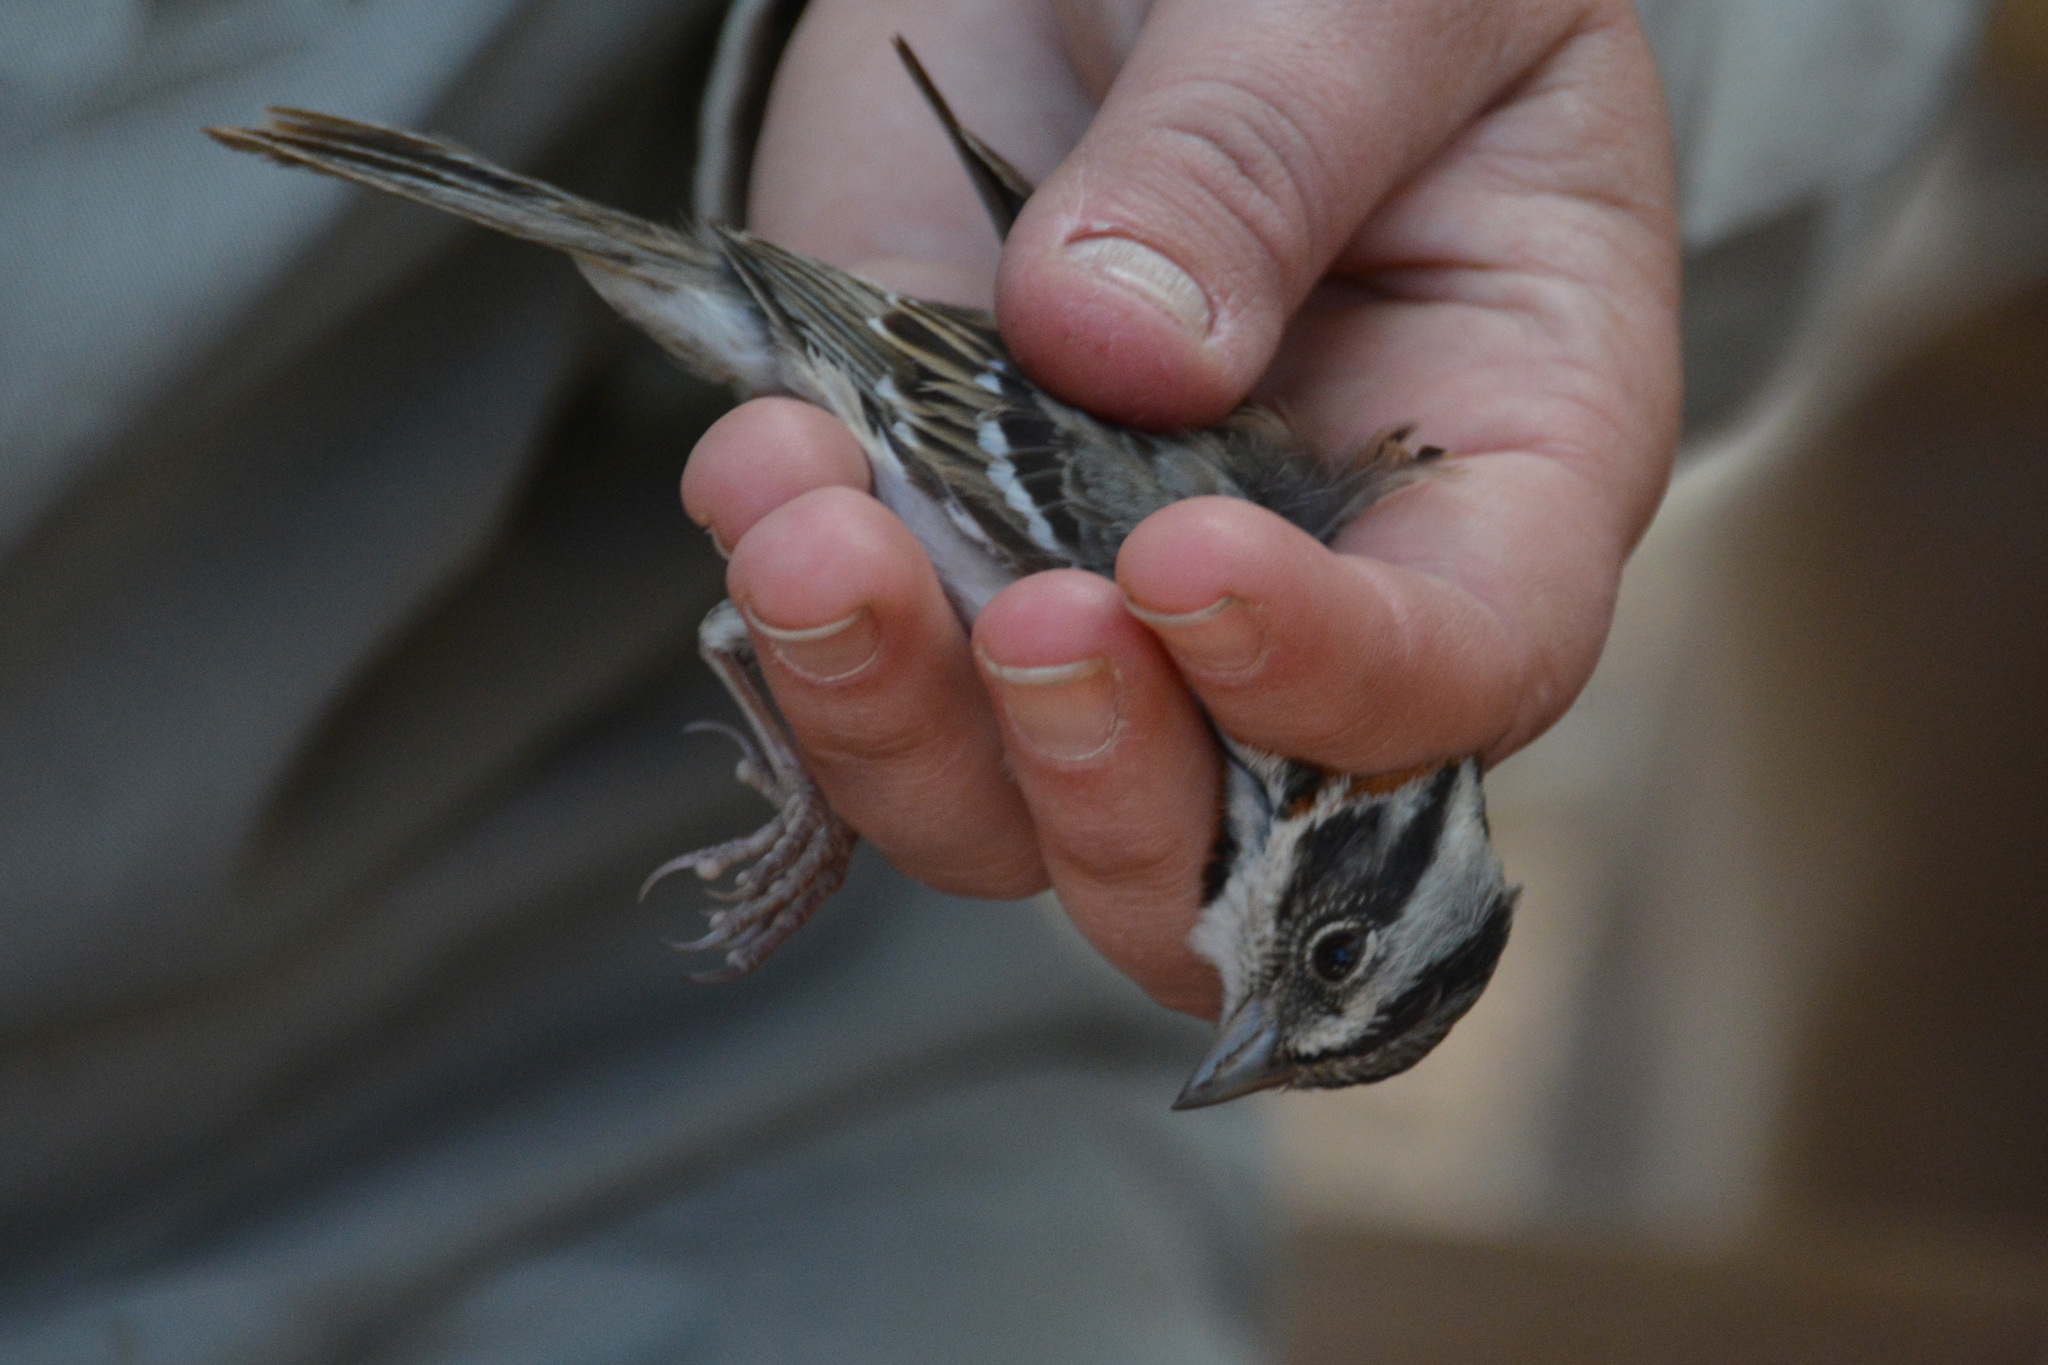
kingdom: Animalia
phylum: Chordata
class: Aves
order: Passeriformes
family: Passerellidae
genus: Zonotrichia
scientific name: Zonotrichia capensis
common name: Rufous-collared sparrow
